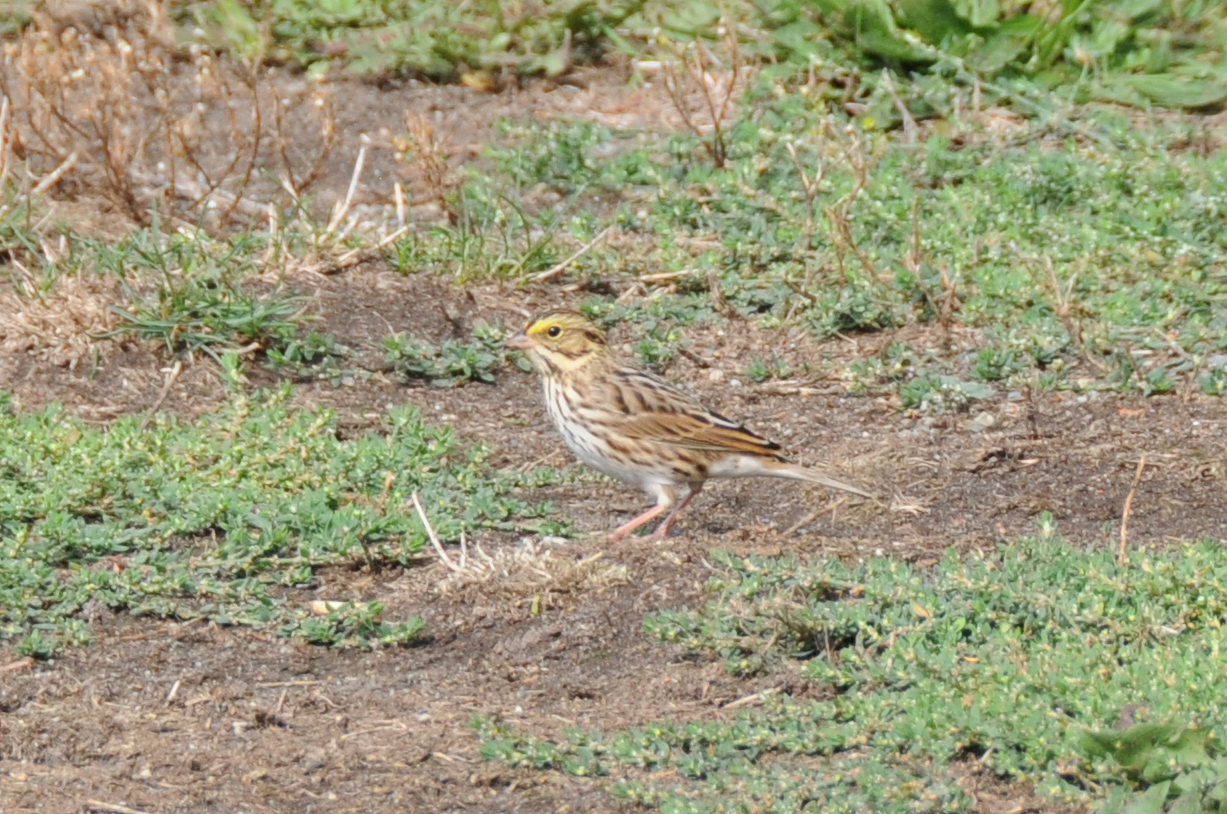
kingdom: Animalia
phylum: Chordata
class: Aves
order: Passeriformes
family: Passerellidae
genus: Passerculus
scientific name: Passerculus sandwichensis
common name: Savannah sparrow
